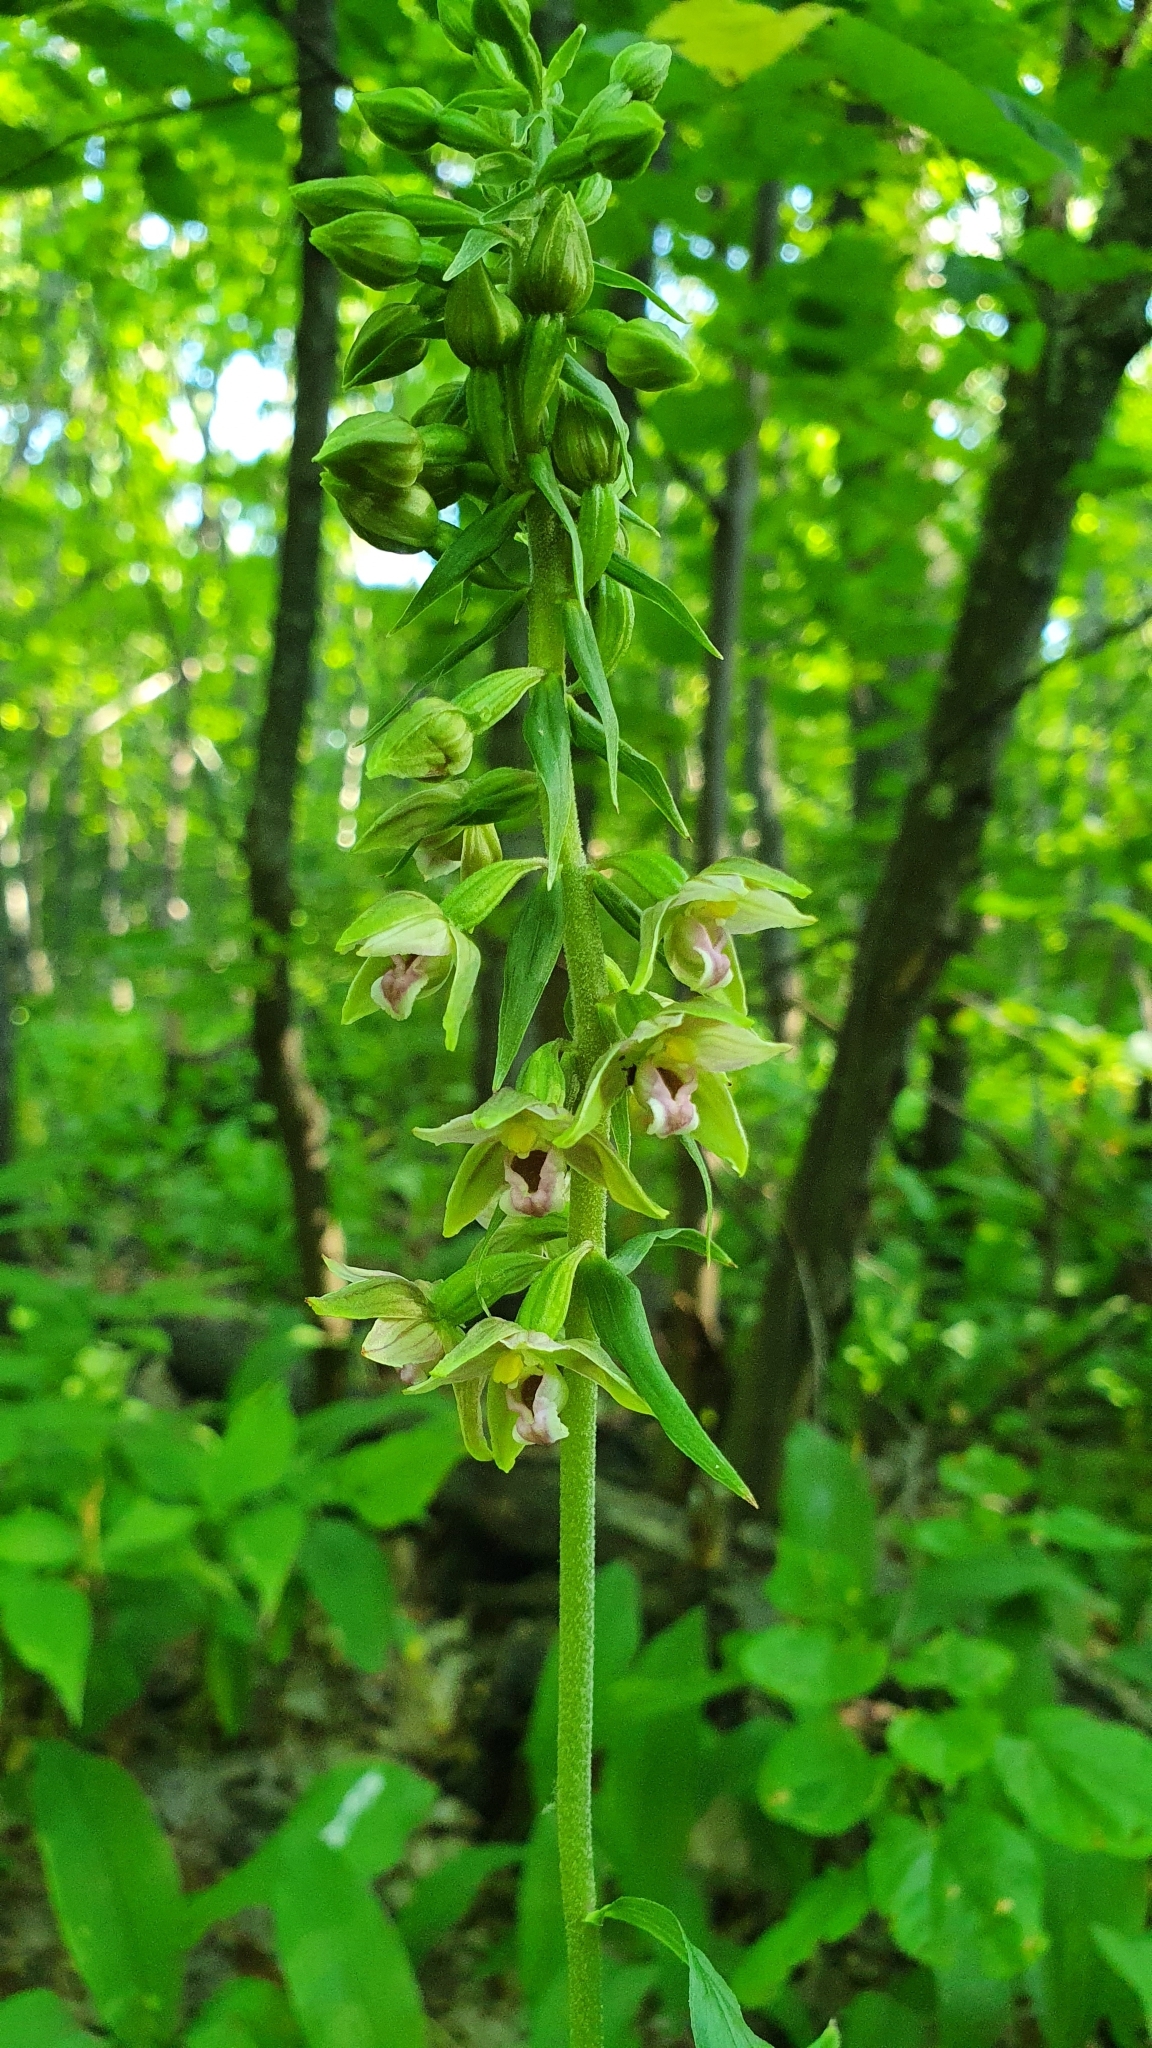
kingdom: Plantae
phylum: Tracheophyta
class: Liliopsida
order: Asparagales
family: Orchidaceae
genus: Epipactis
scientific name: Epipactis helleborine
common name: Broad-leaved helleborine
